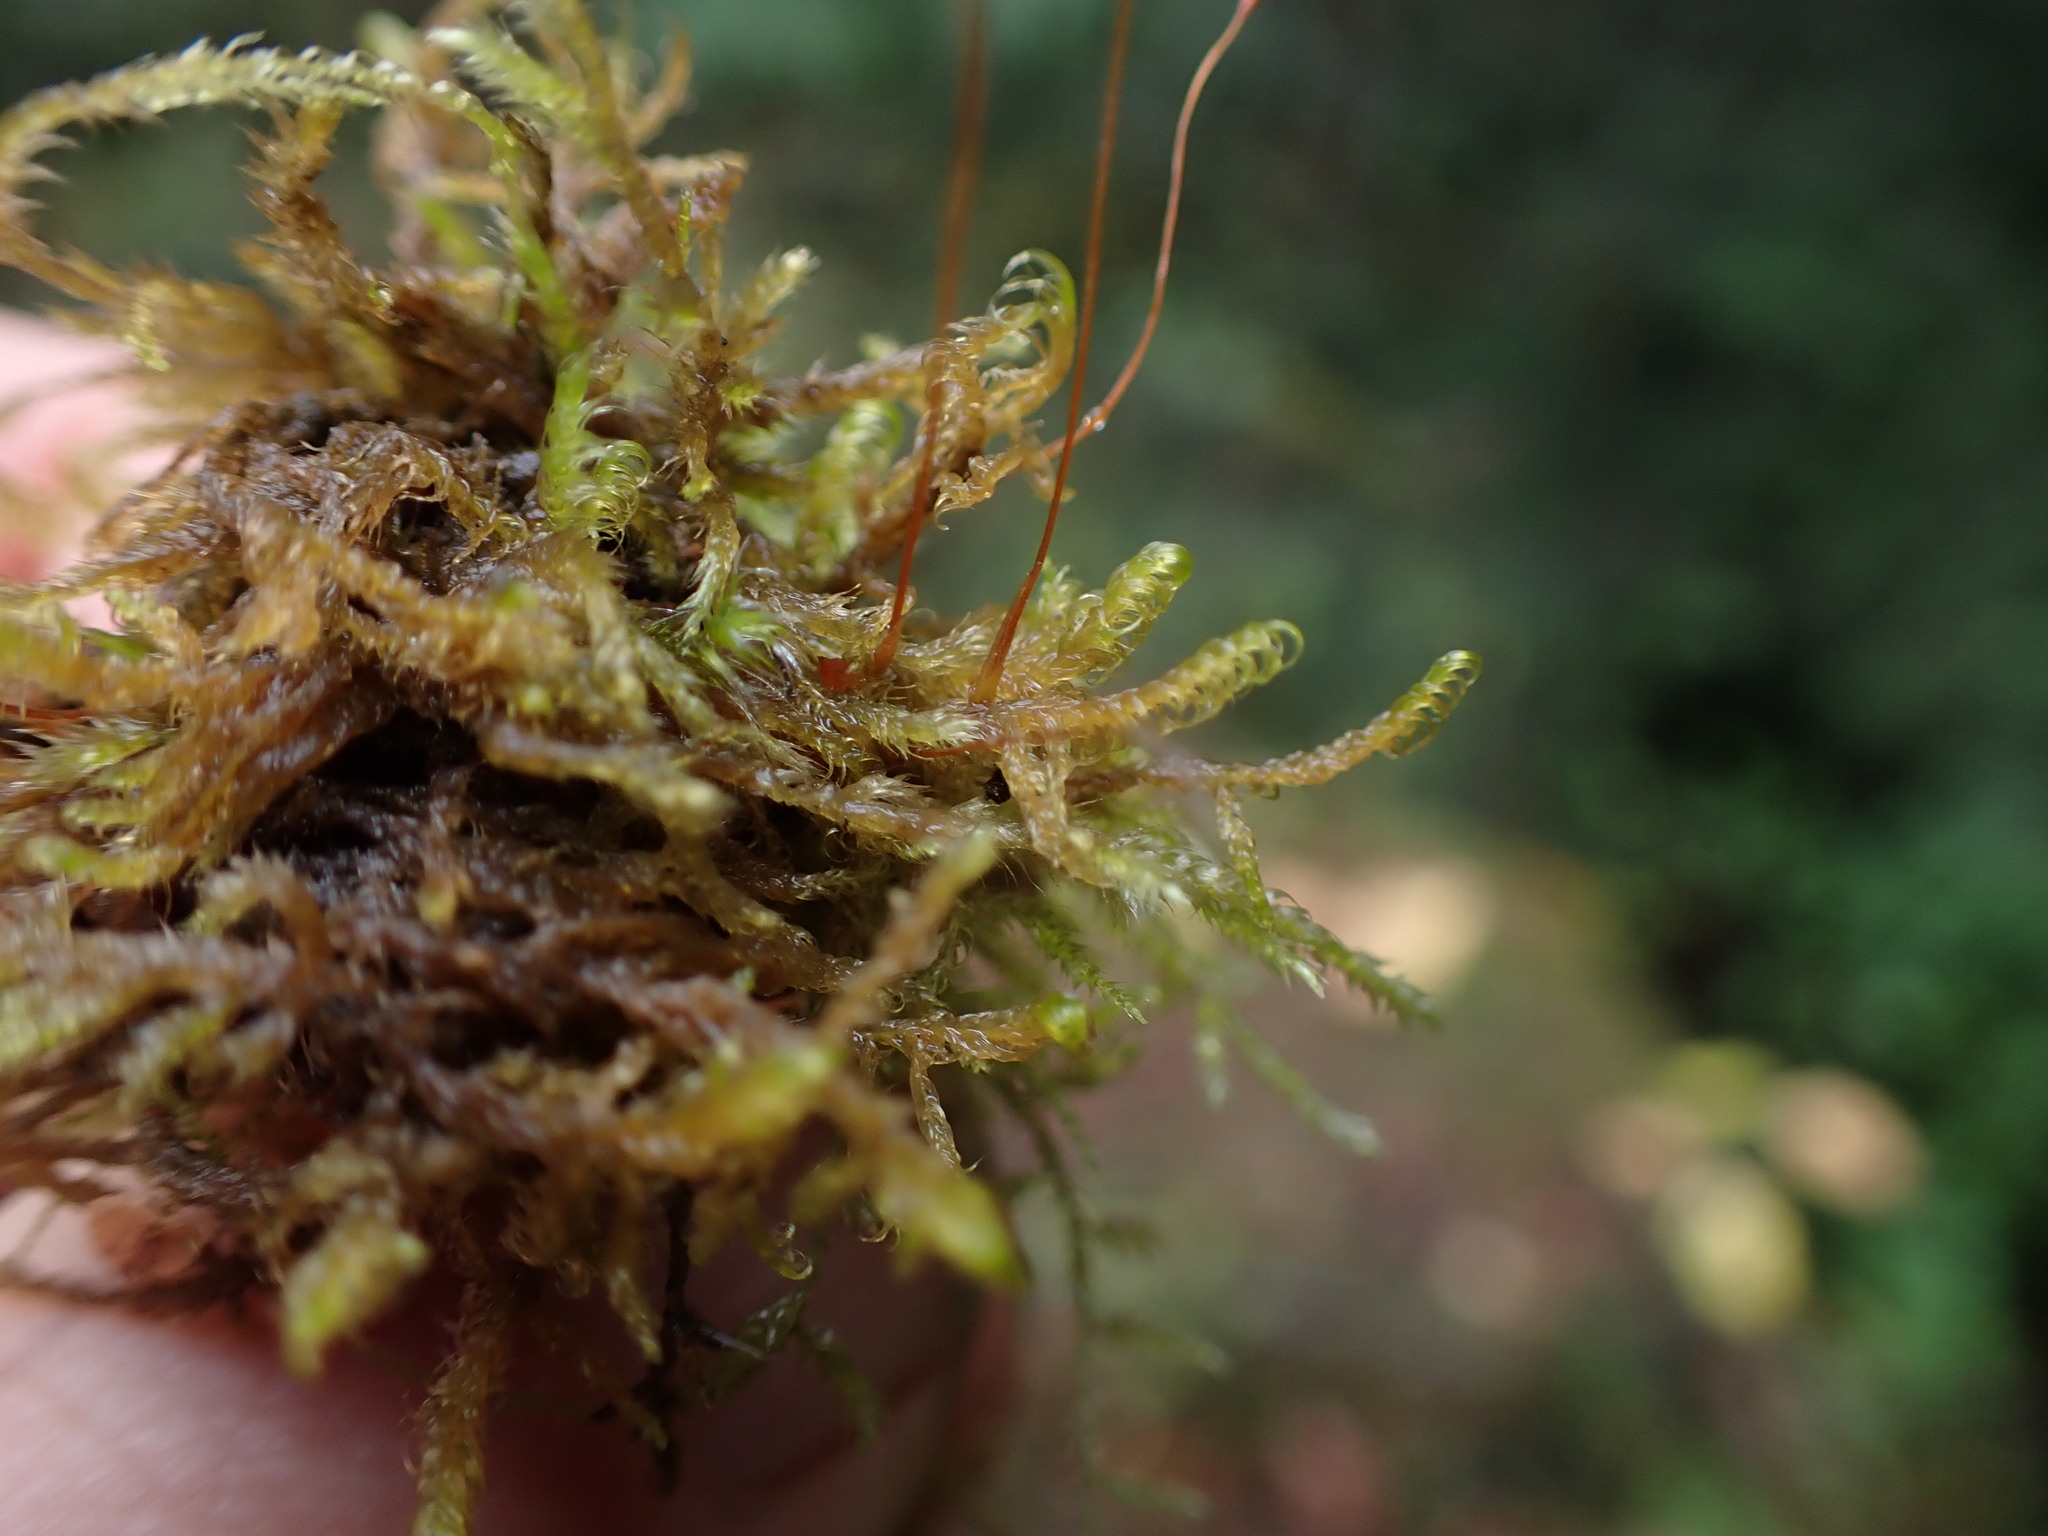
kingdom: Plantae
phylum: Bryophyta
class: Bryopsida
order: Hypnales
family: Scorpidiaceae
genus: Sanionia
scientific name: Sanionia uncinata
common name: Sickle moss
